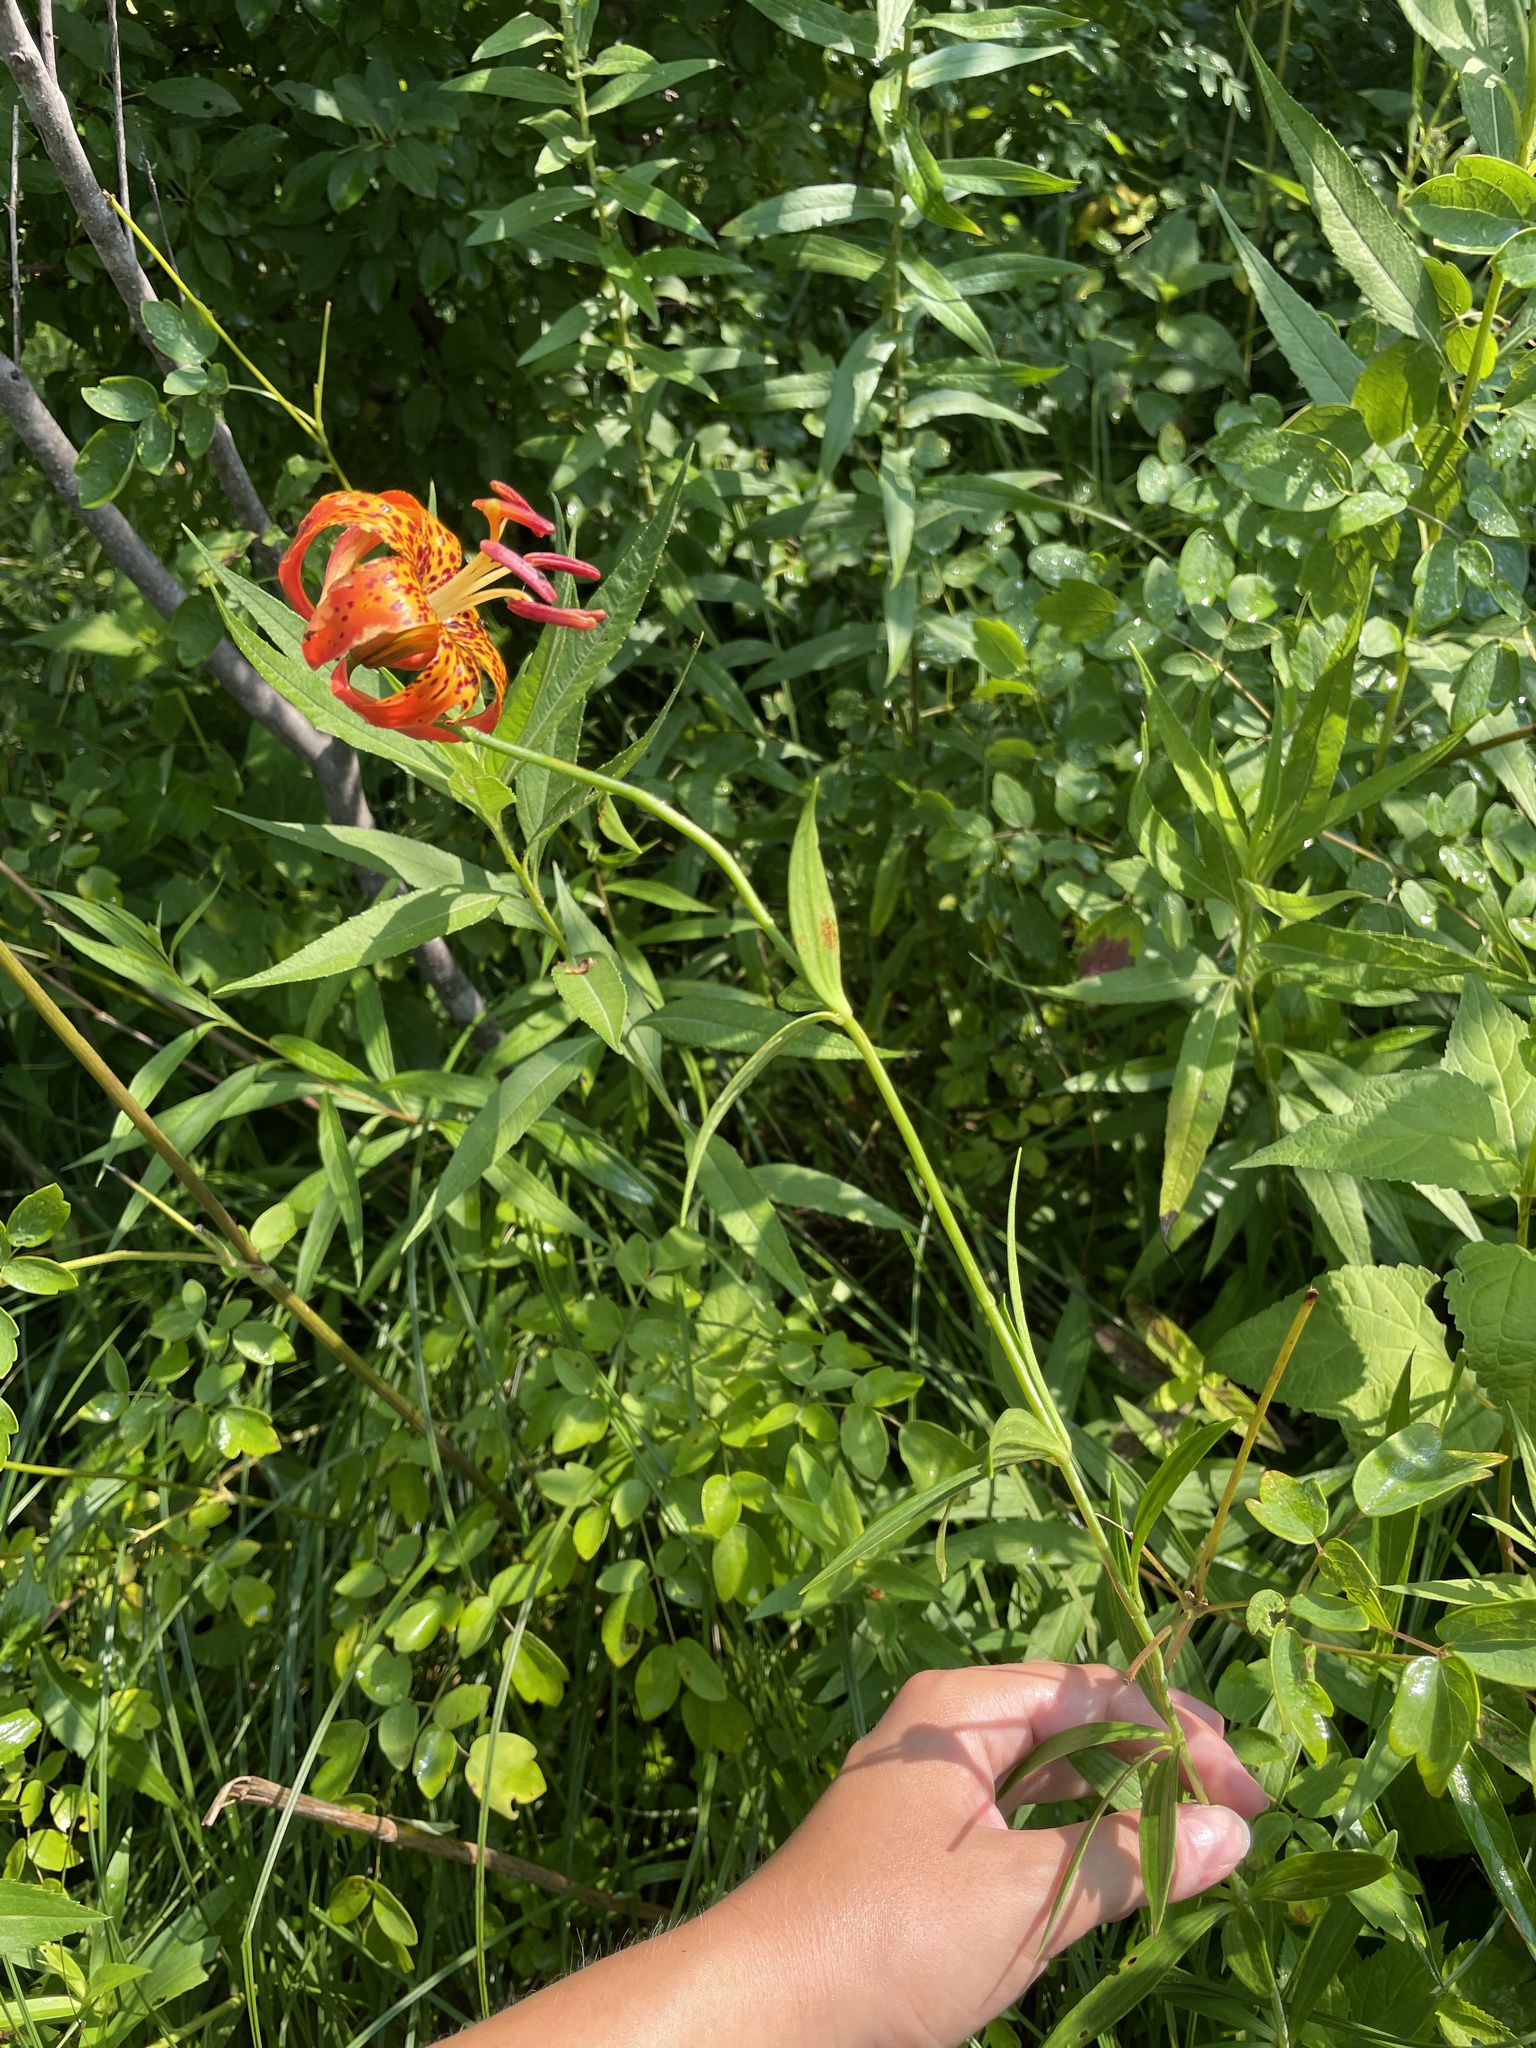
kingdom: Plantae
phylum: Tracheophyta
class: Liliopsida
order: Liliales
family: Liliaceae
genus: Lilium
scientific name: Lilium michiganense
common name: Michigan lily
